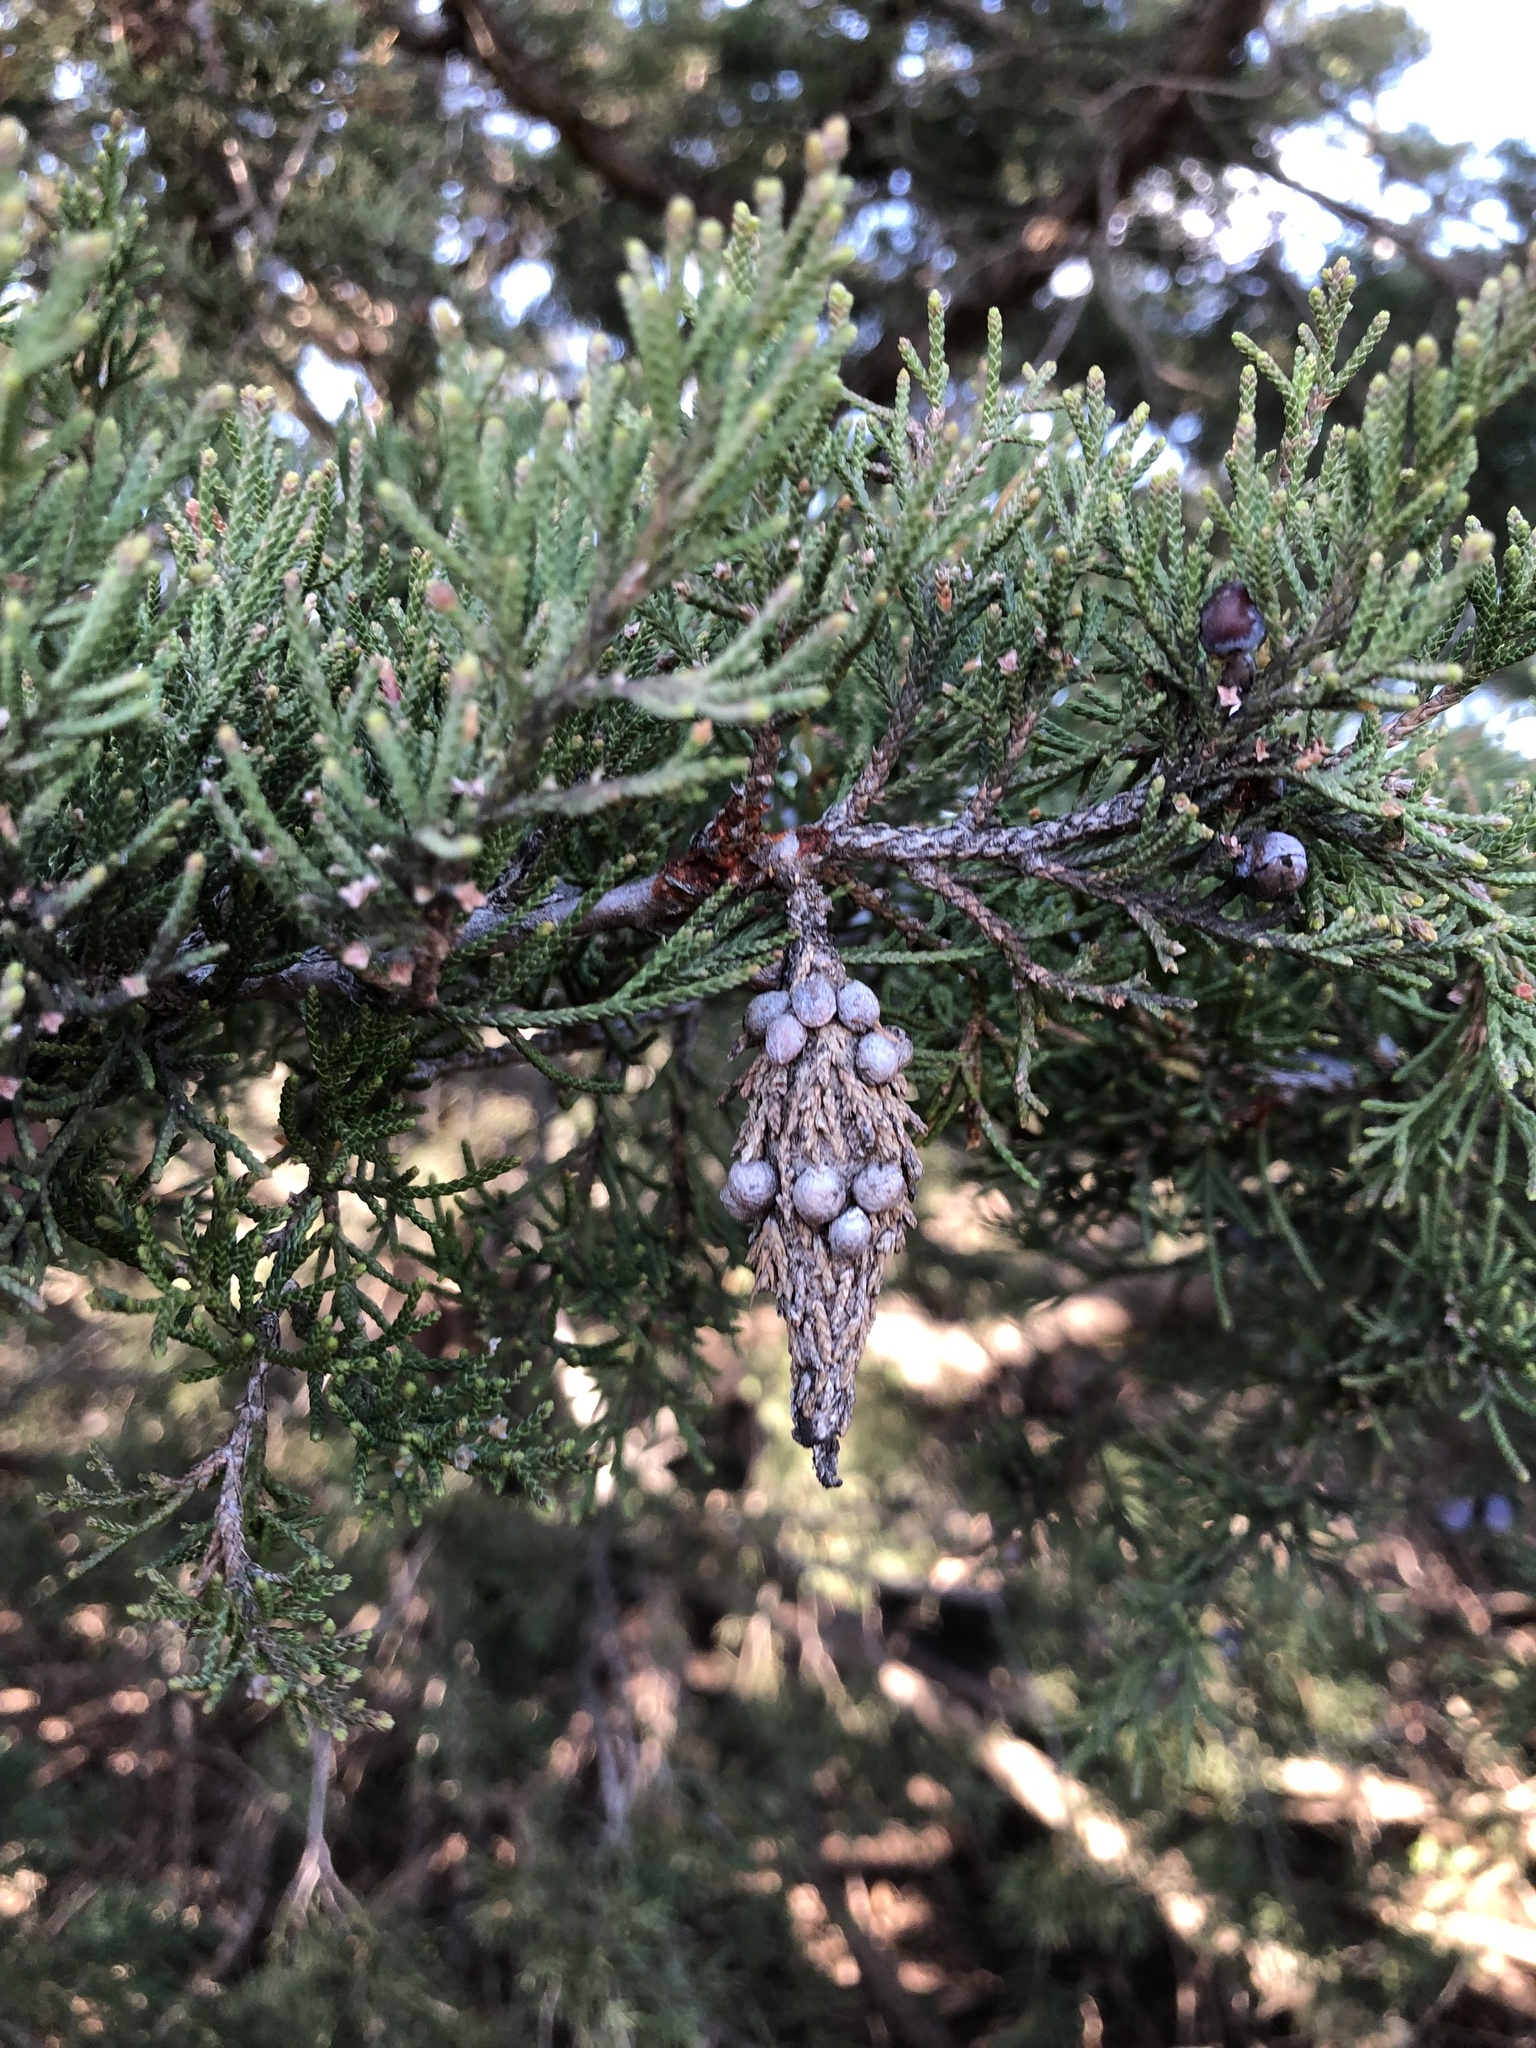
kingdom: Animalia
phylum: Arthropoda
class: Insecta
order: Lepidoptera
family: Psychidae
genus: Thyridopteryx
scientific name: Thyridopteryx ephemeraeformis
